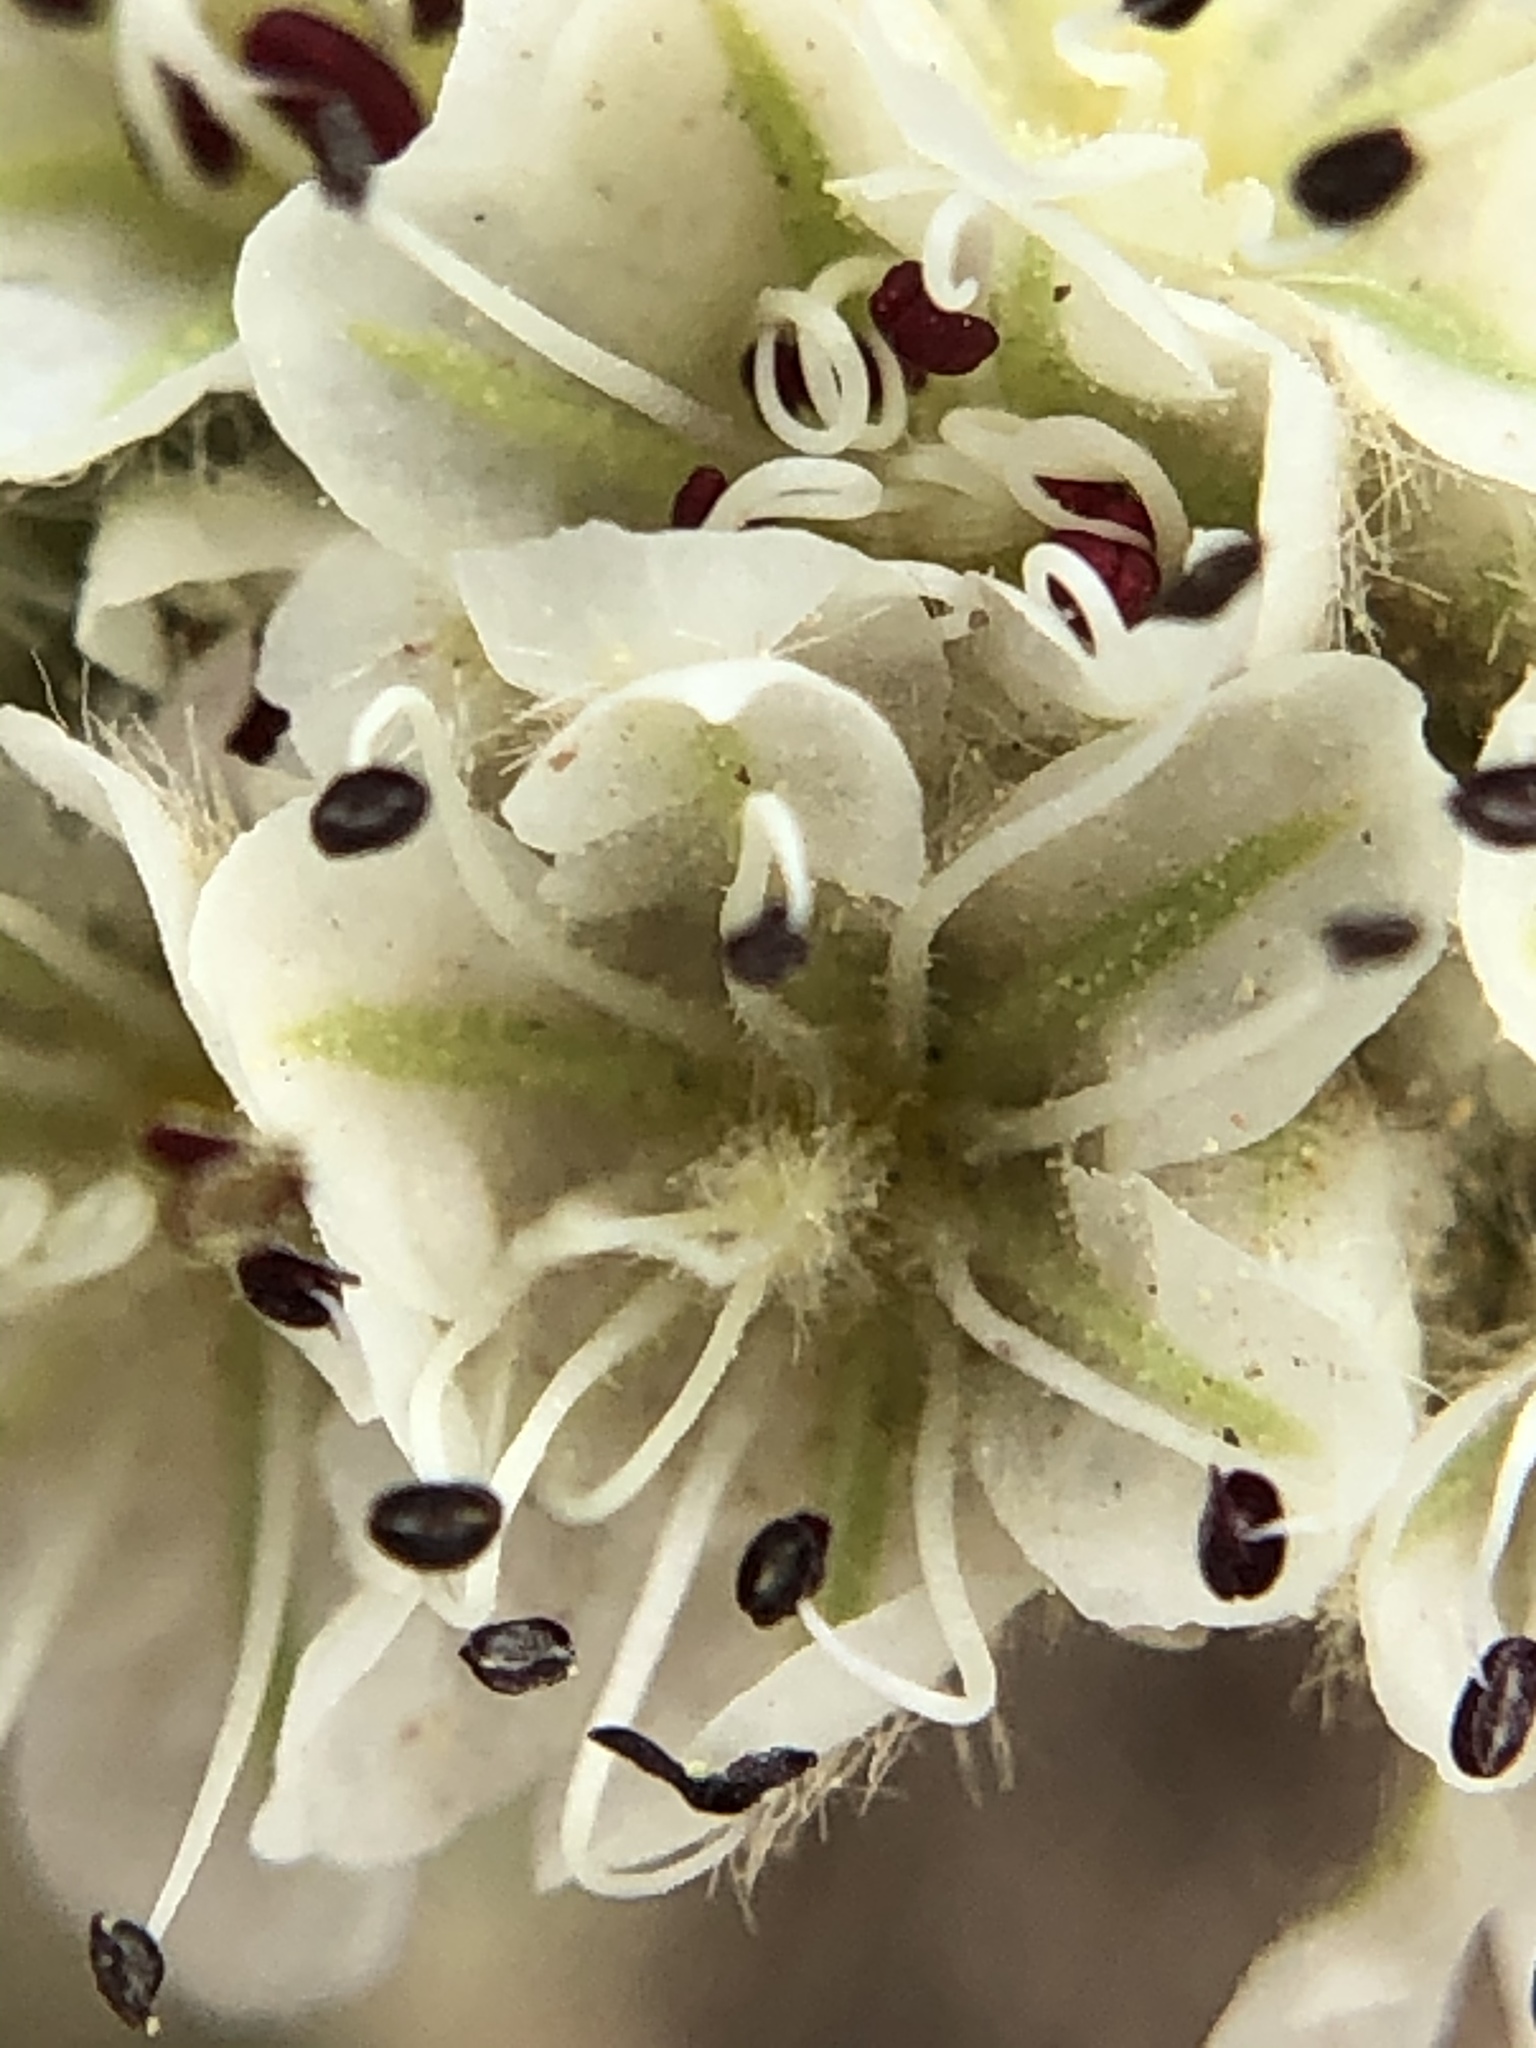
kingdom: Plantae
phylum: Tracheophyta
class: Magnoliopsida
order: Caryophyllales
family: Polygonaceae
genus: Eriogonum
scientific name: Eriogonum pyrolifolium
